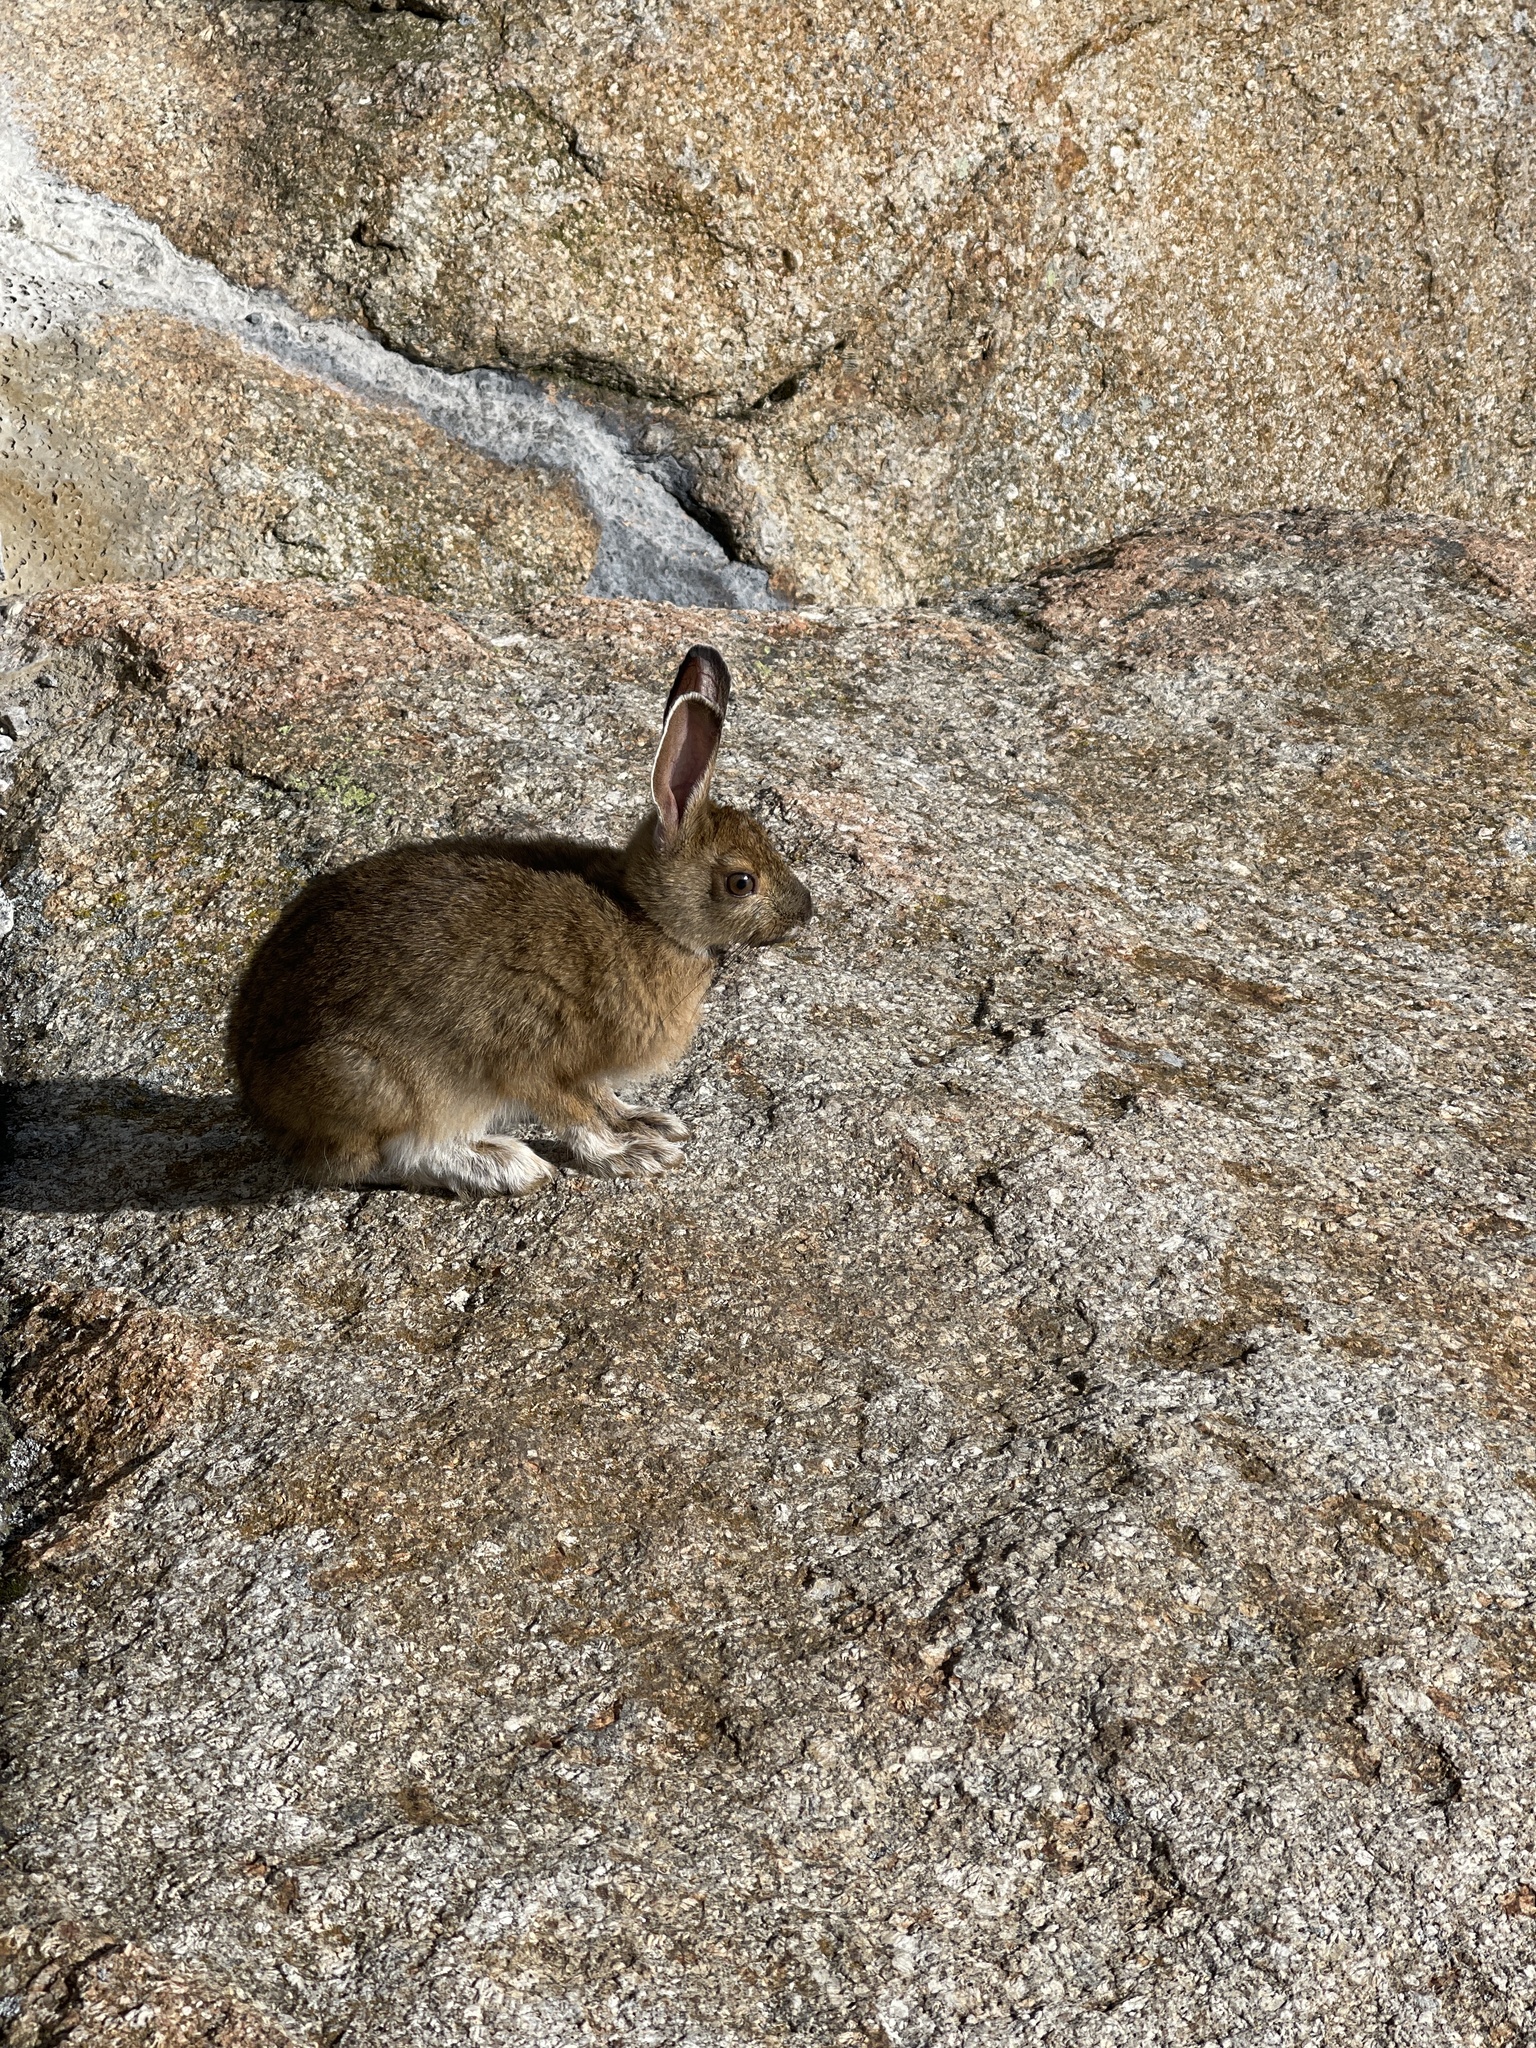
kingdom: Animalia
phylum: Chordata
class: Mammalia
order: Lagomorpha
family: Leporidae
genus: Lepus
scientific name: Lepus americanus
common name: Snowshoe hare
